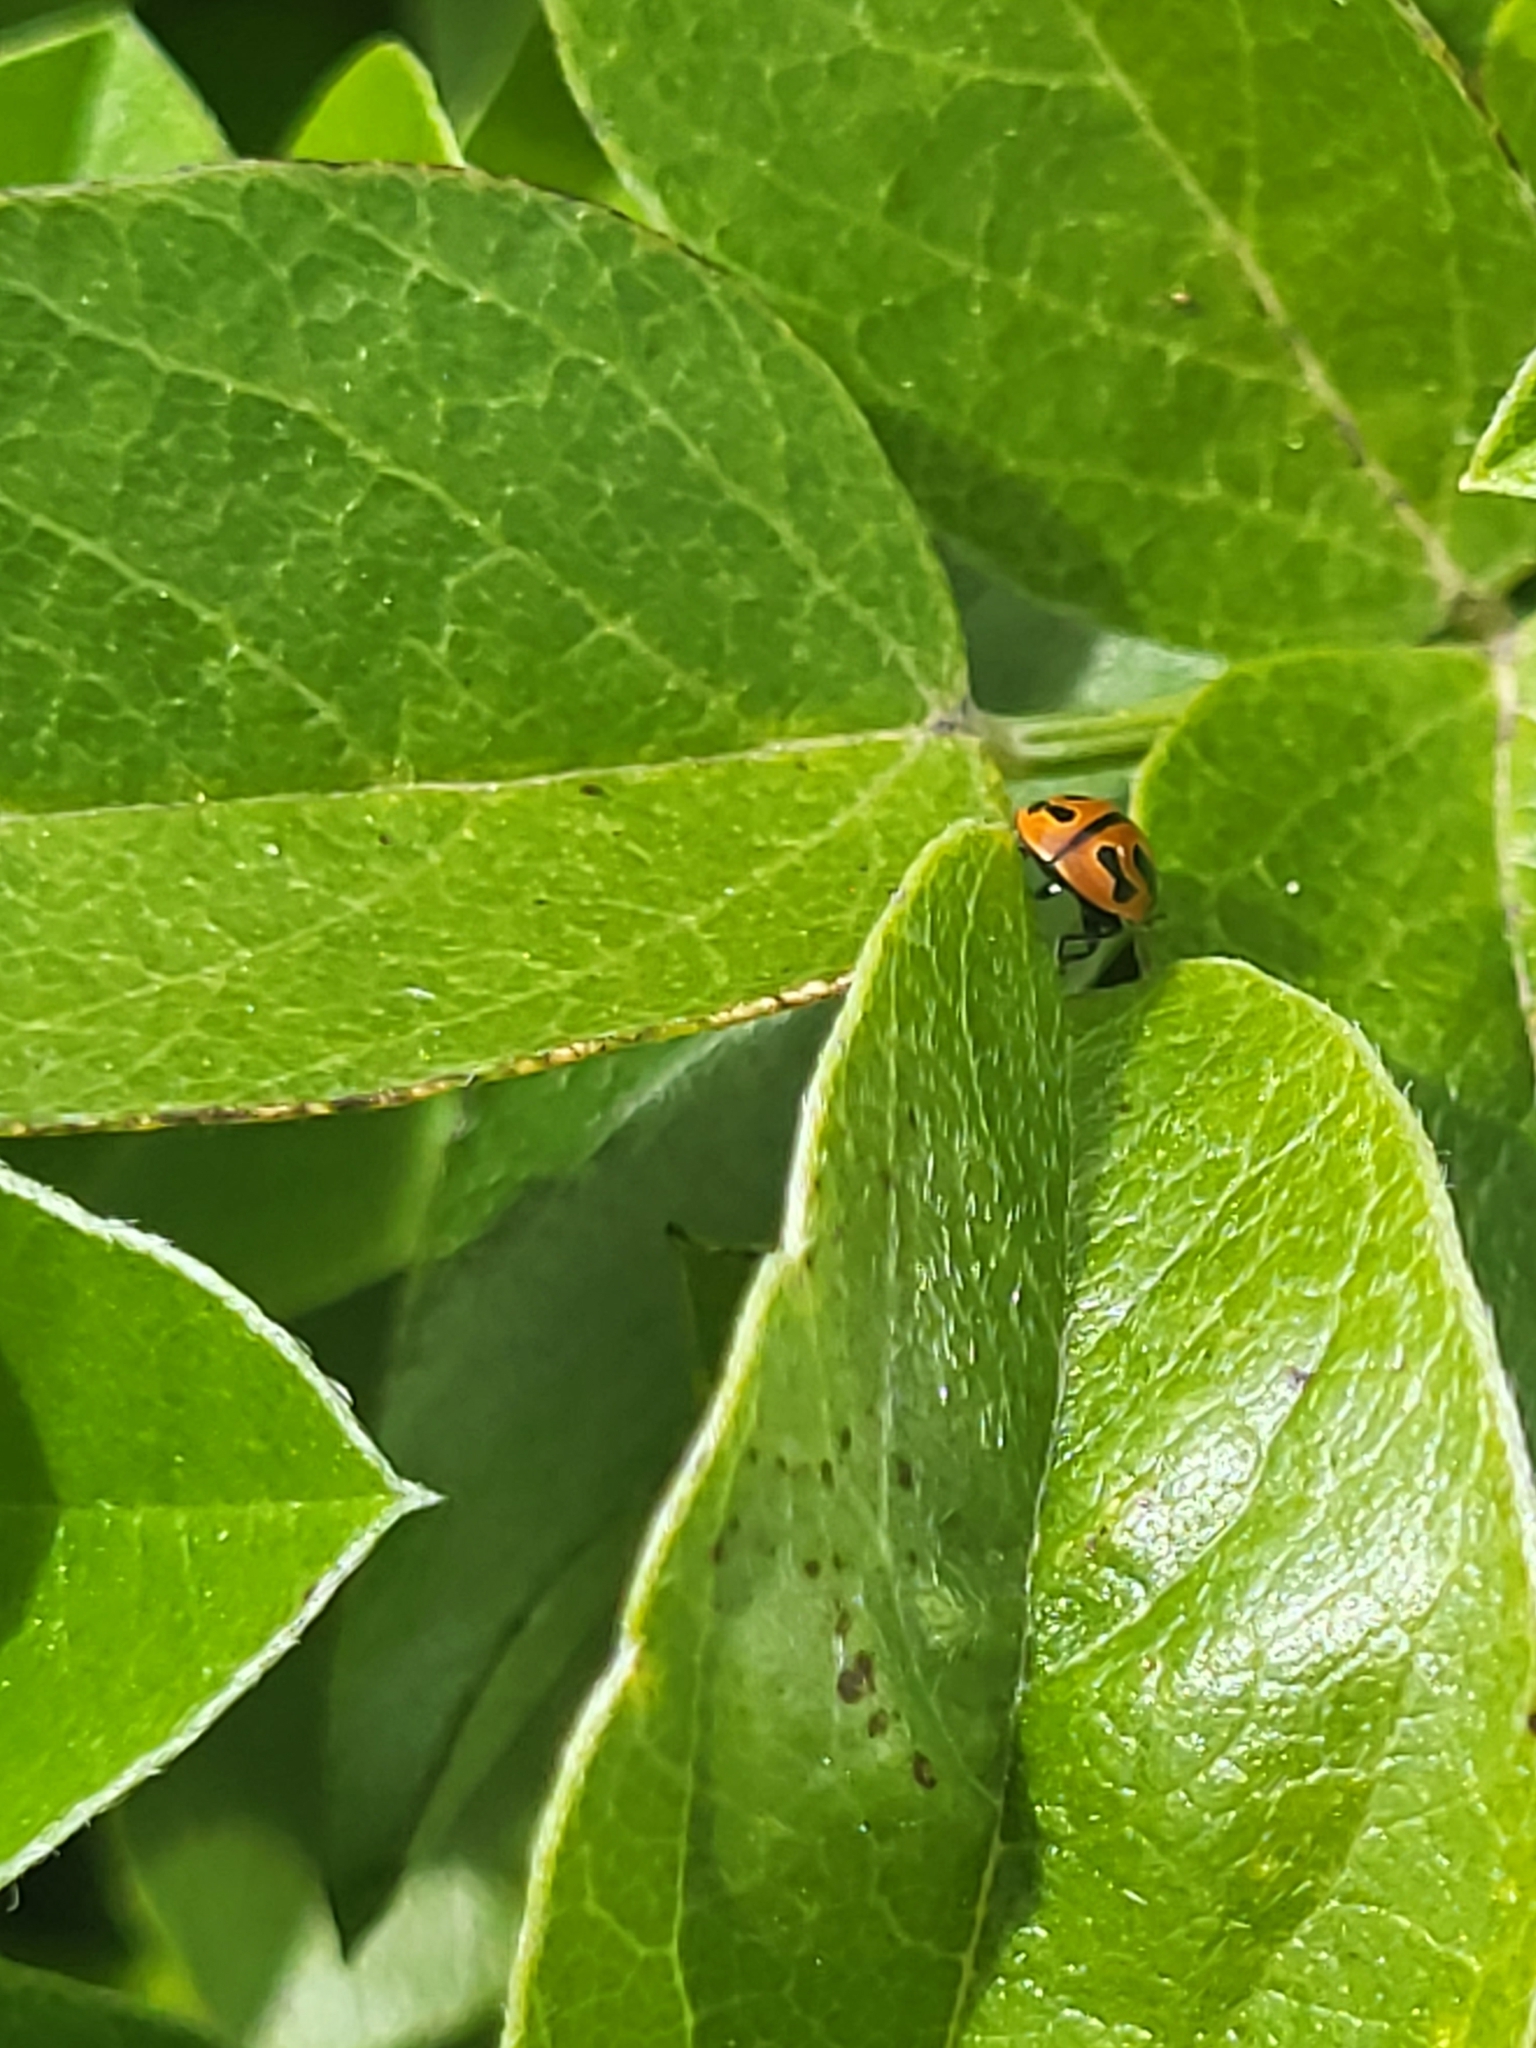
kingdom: Animalia
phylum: Arthropoda
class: Insecta
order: Coleoptera
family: Coccinellidae
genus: Coccinella
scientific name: Coccinella miranda
